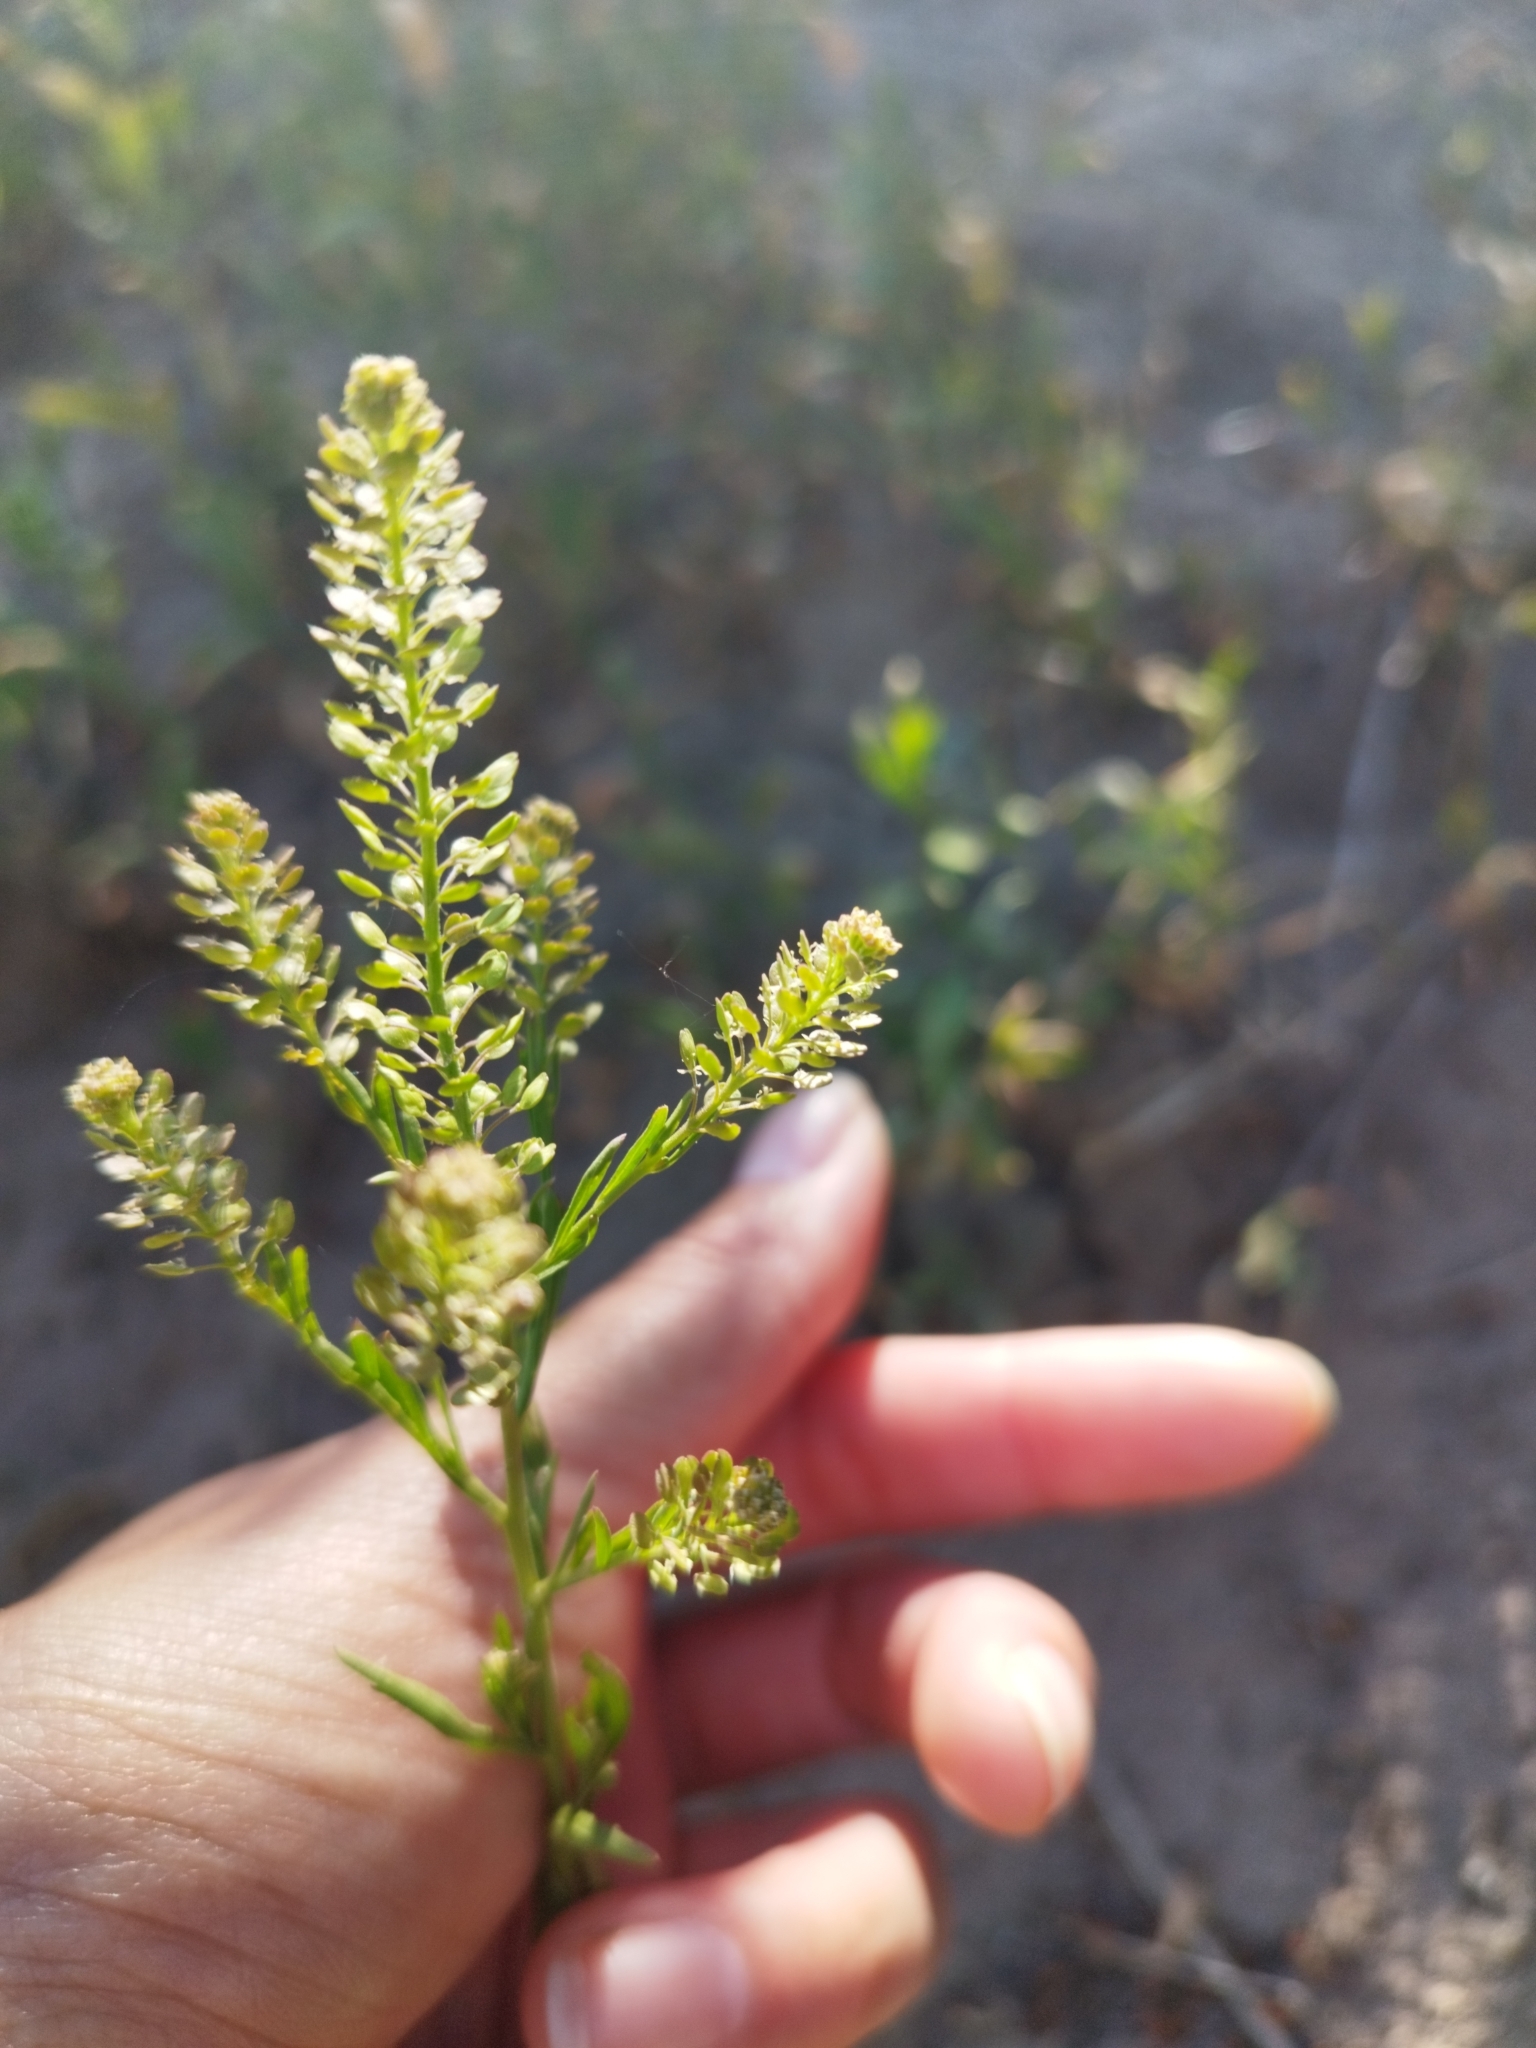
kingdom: Plantae
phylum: Tracheophyta
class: Magnoliopsida
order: Brassicales
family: Brassicaceae
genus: Lepidium
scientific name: Lepidium densiflorum
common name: Miner's pepperwort
